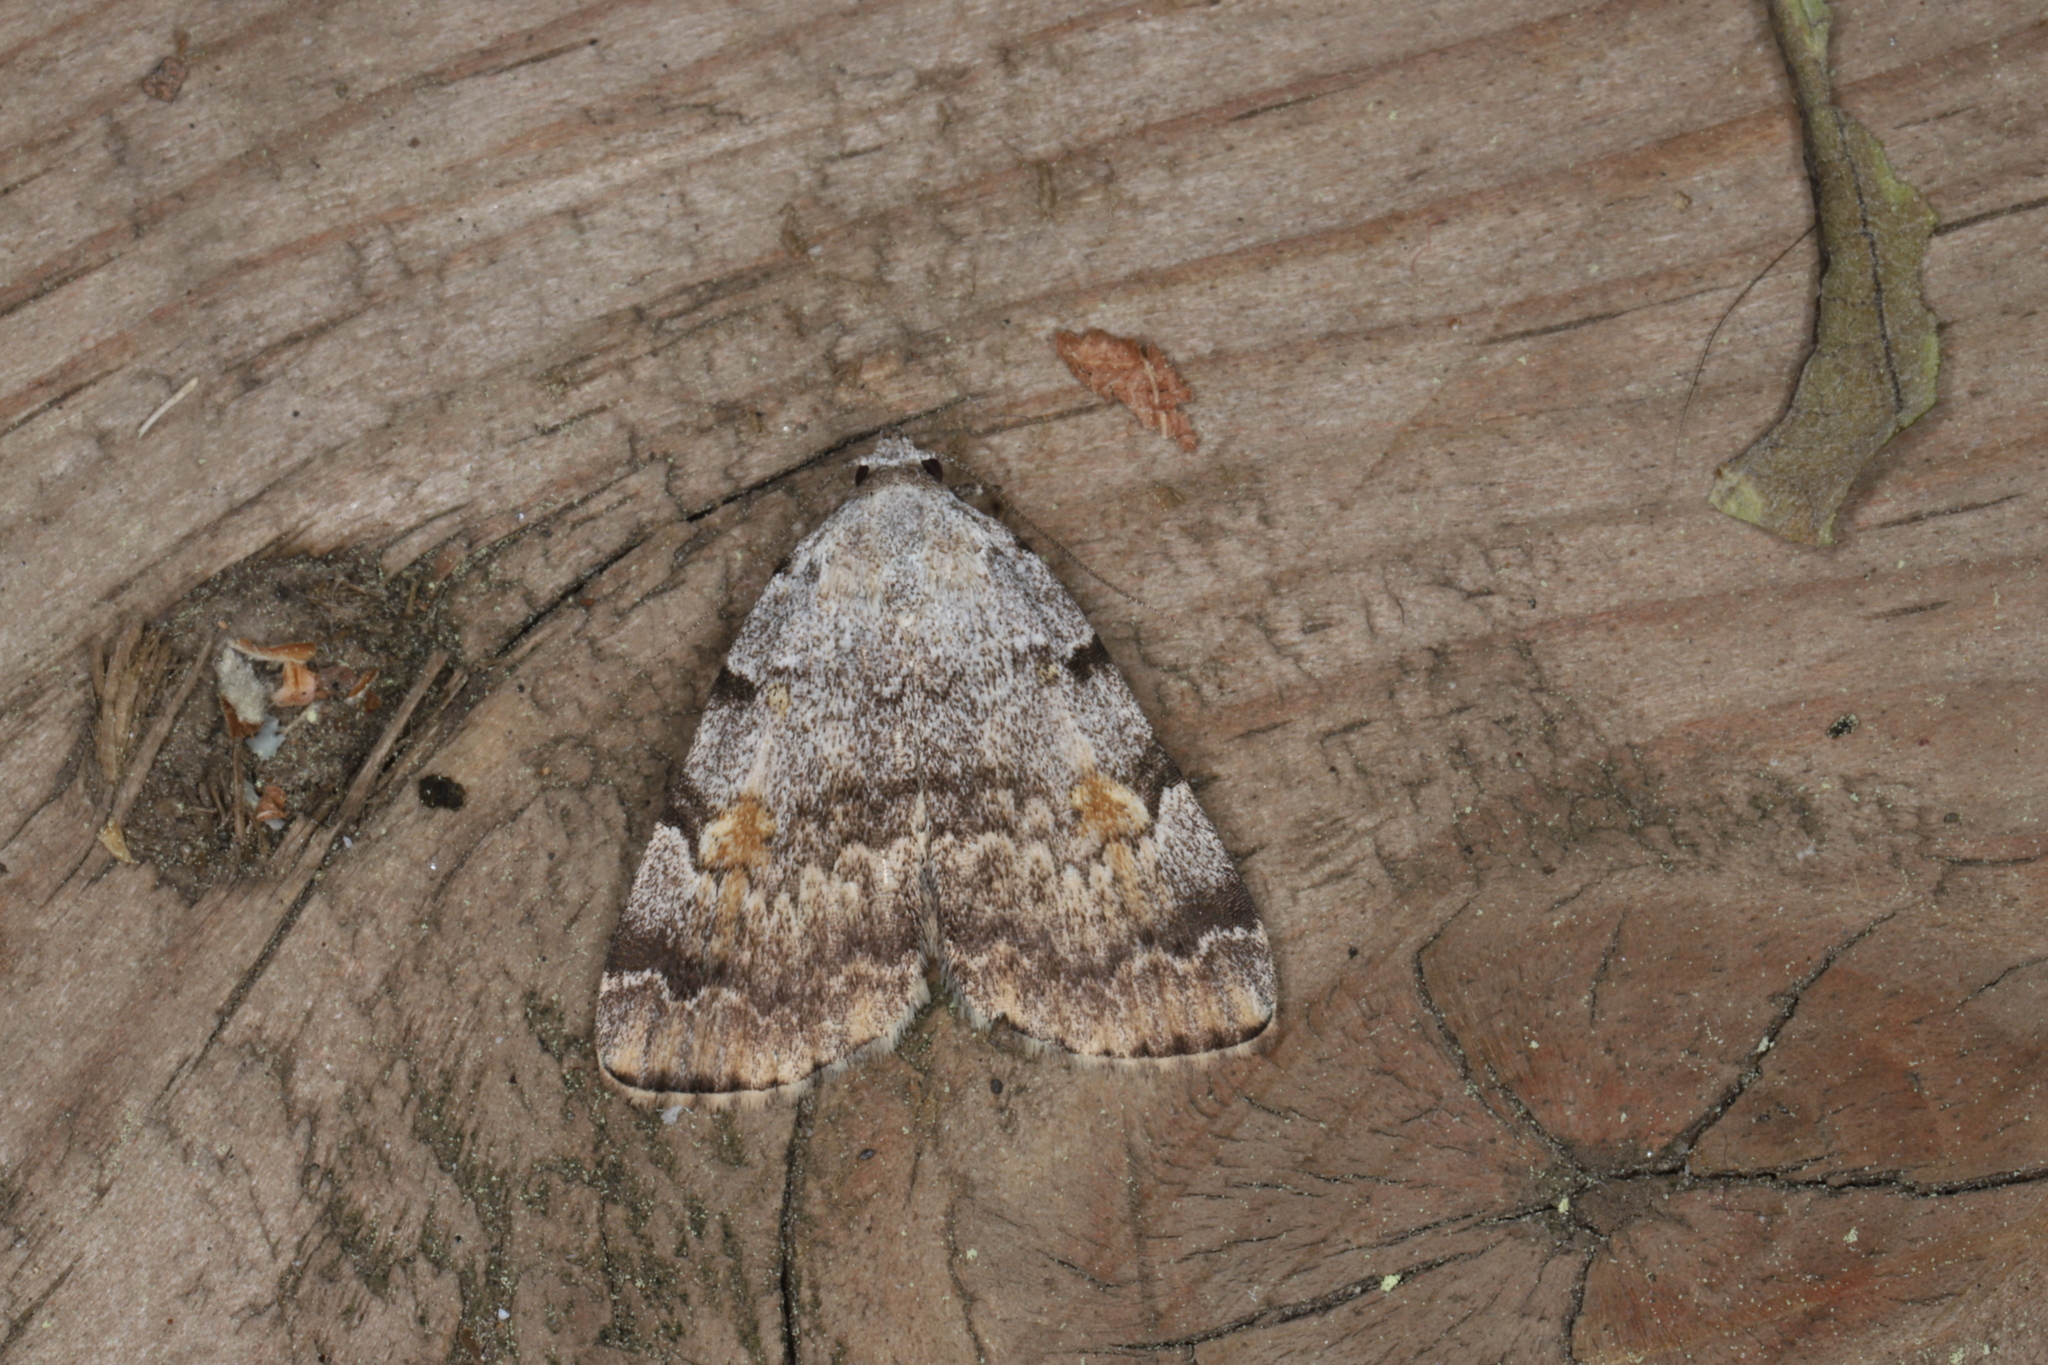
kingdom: Animalia
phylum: Arthropoda
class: Insecta
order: Lepidoptera
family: Erebidae
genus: Idia
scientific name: Idia americalis
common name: American idia moth
